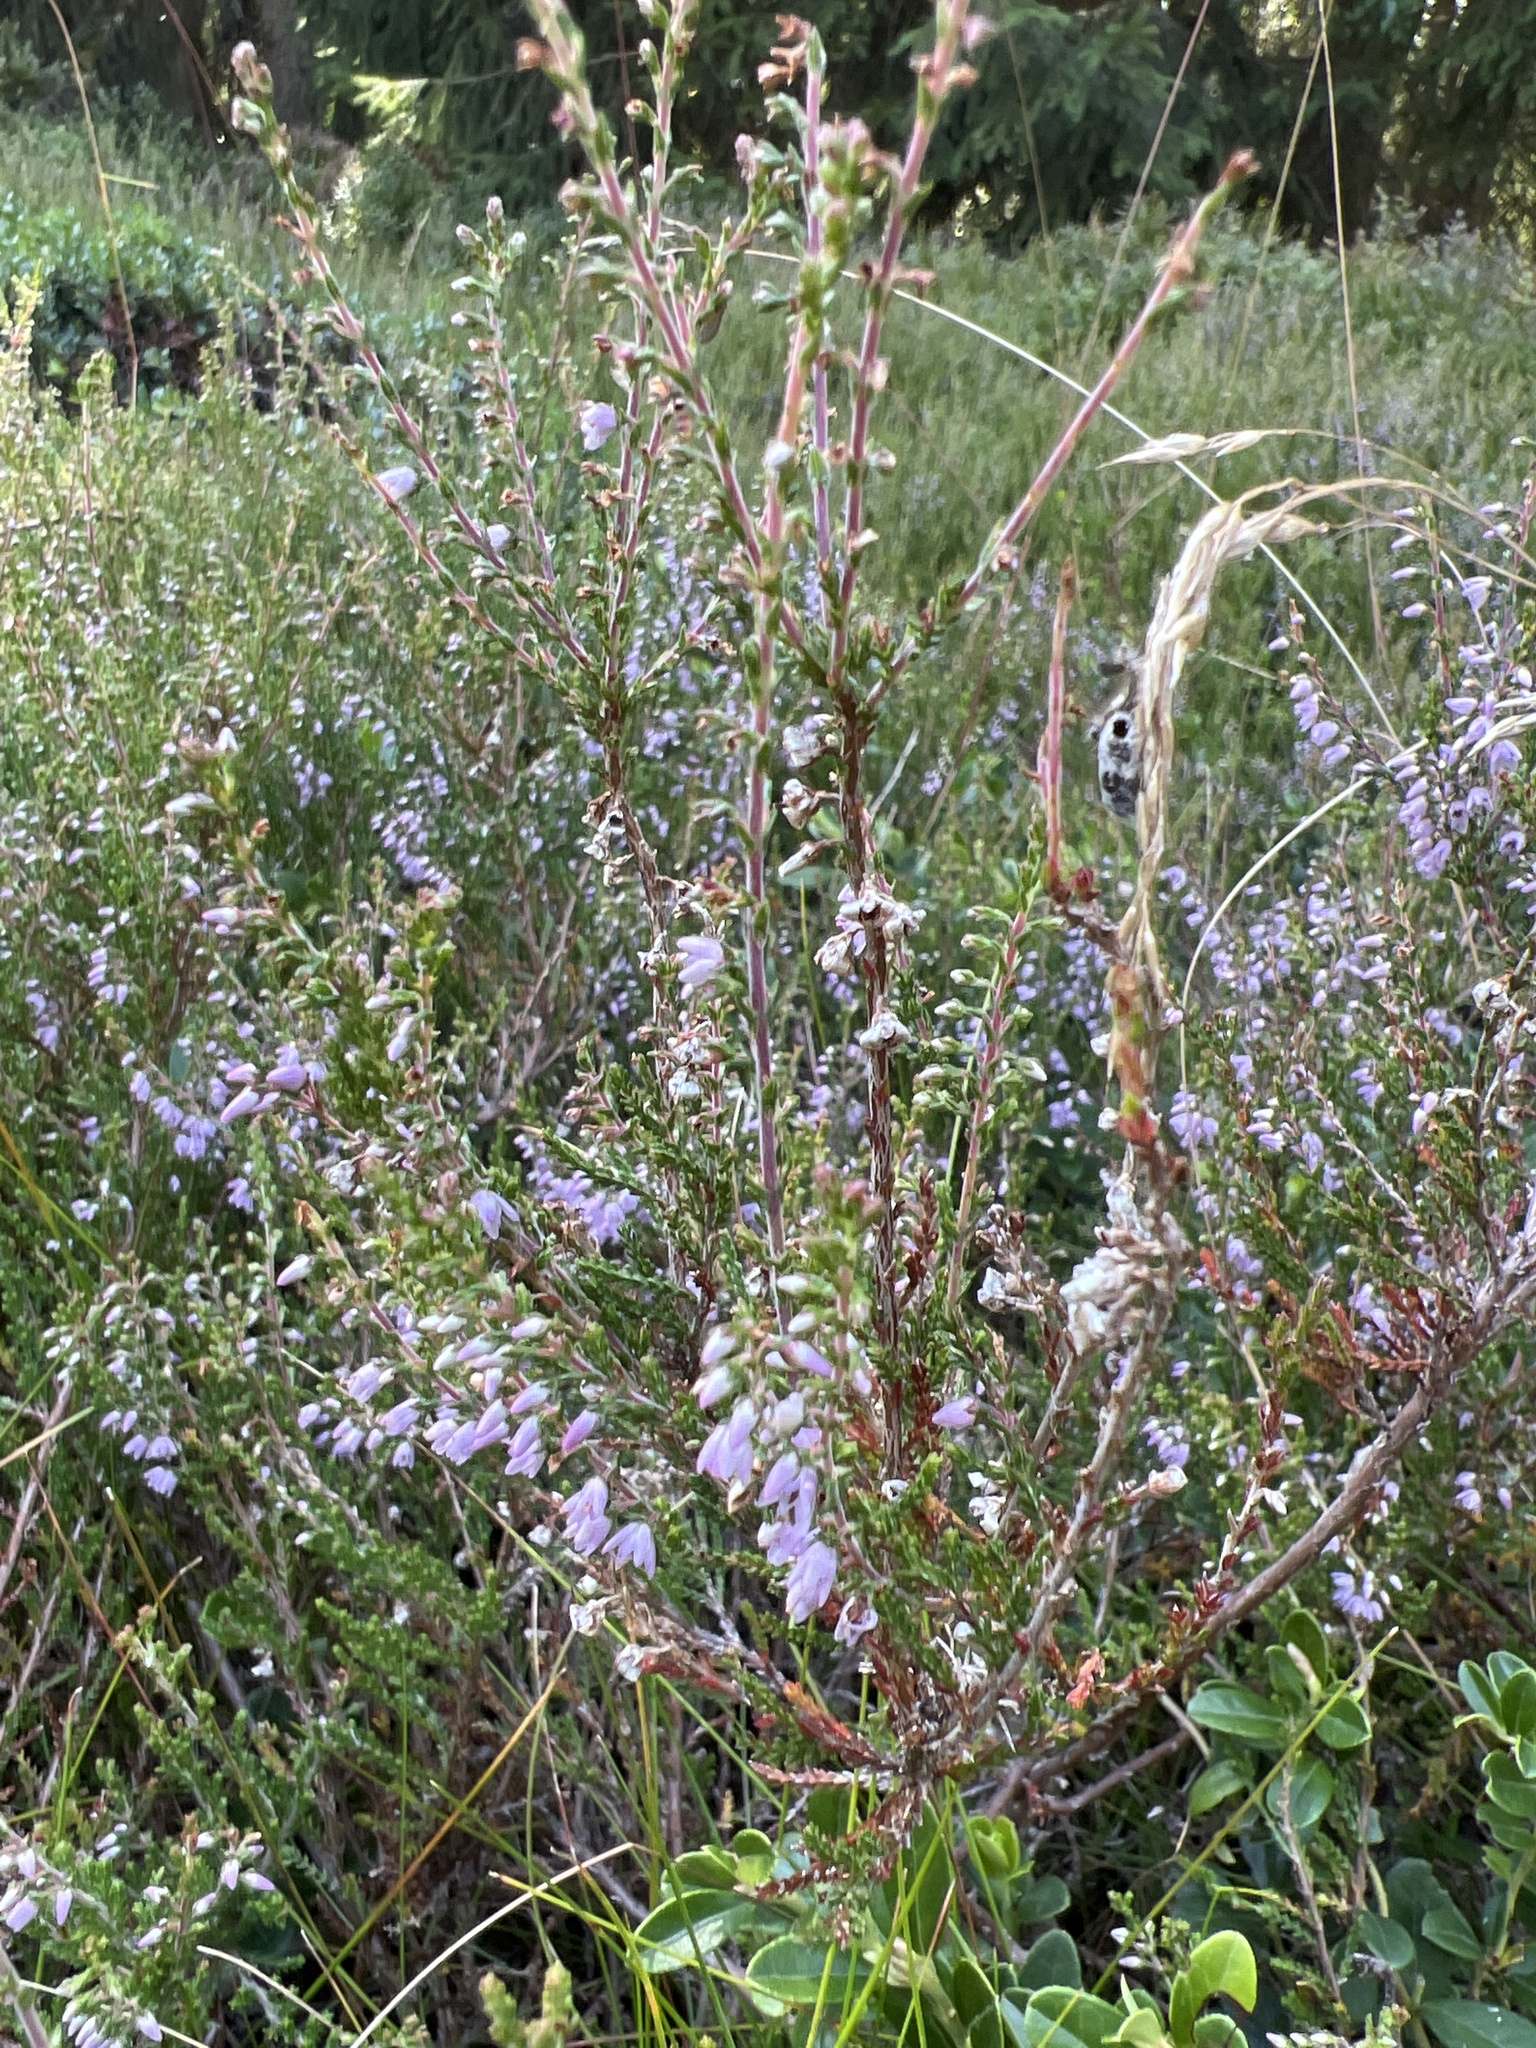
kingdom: Plantae
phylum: Tracheophyta
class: Magnoliopsida
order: Ericales
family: Ericaceae
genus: Calluna
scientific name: Calluna vulgaris
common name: Heather
